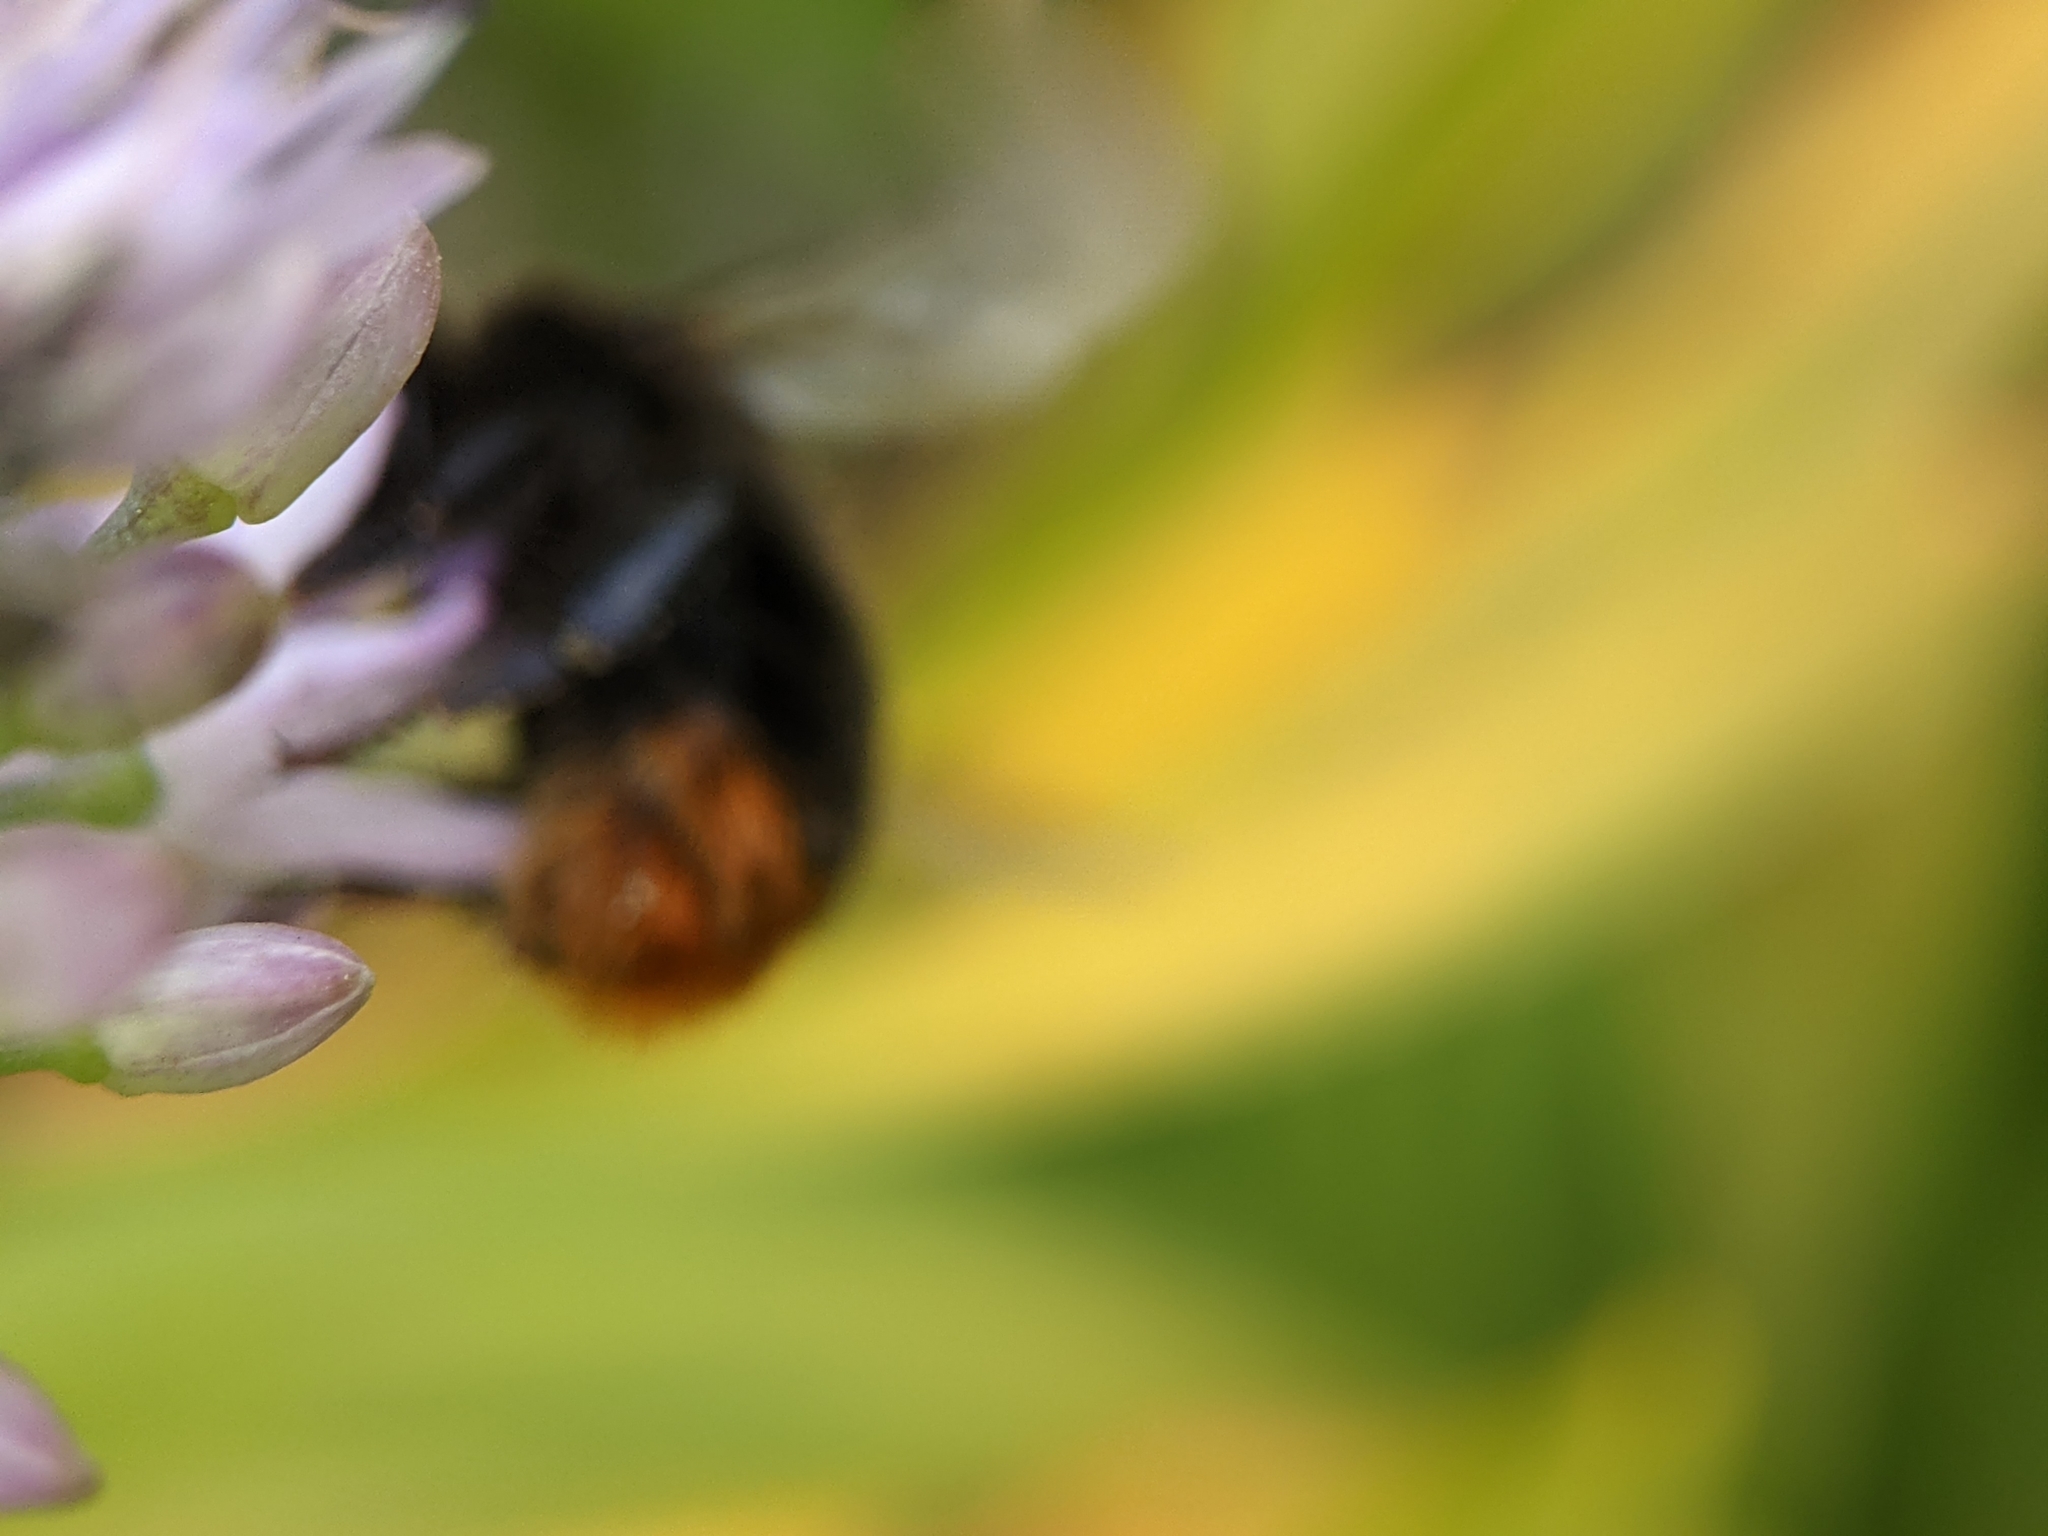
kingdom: Animalia
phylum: Arthropoda
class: Insecta
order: Hymenoptera
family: Apidae
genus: Bombus
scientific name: Bombus lapidarius
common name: Large red-tailed humble-bee
